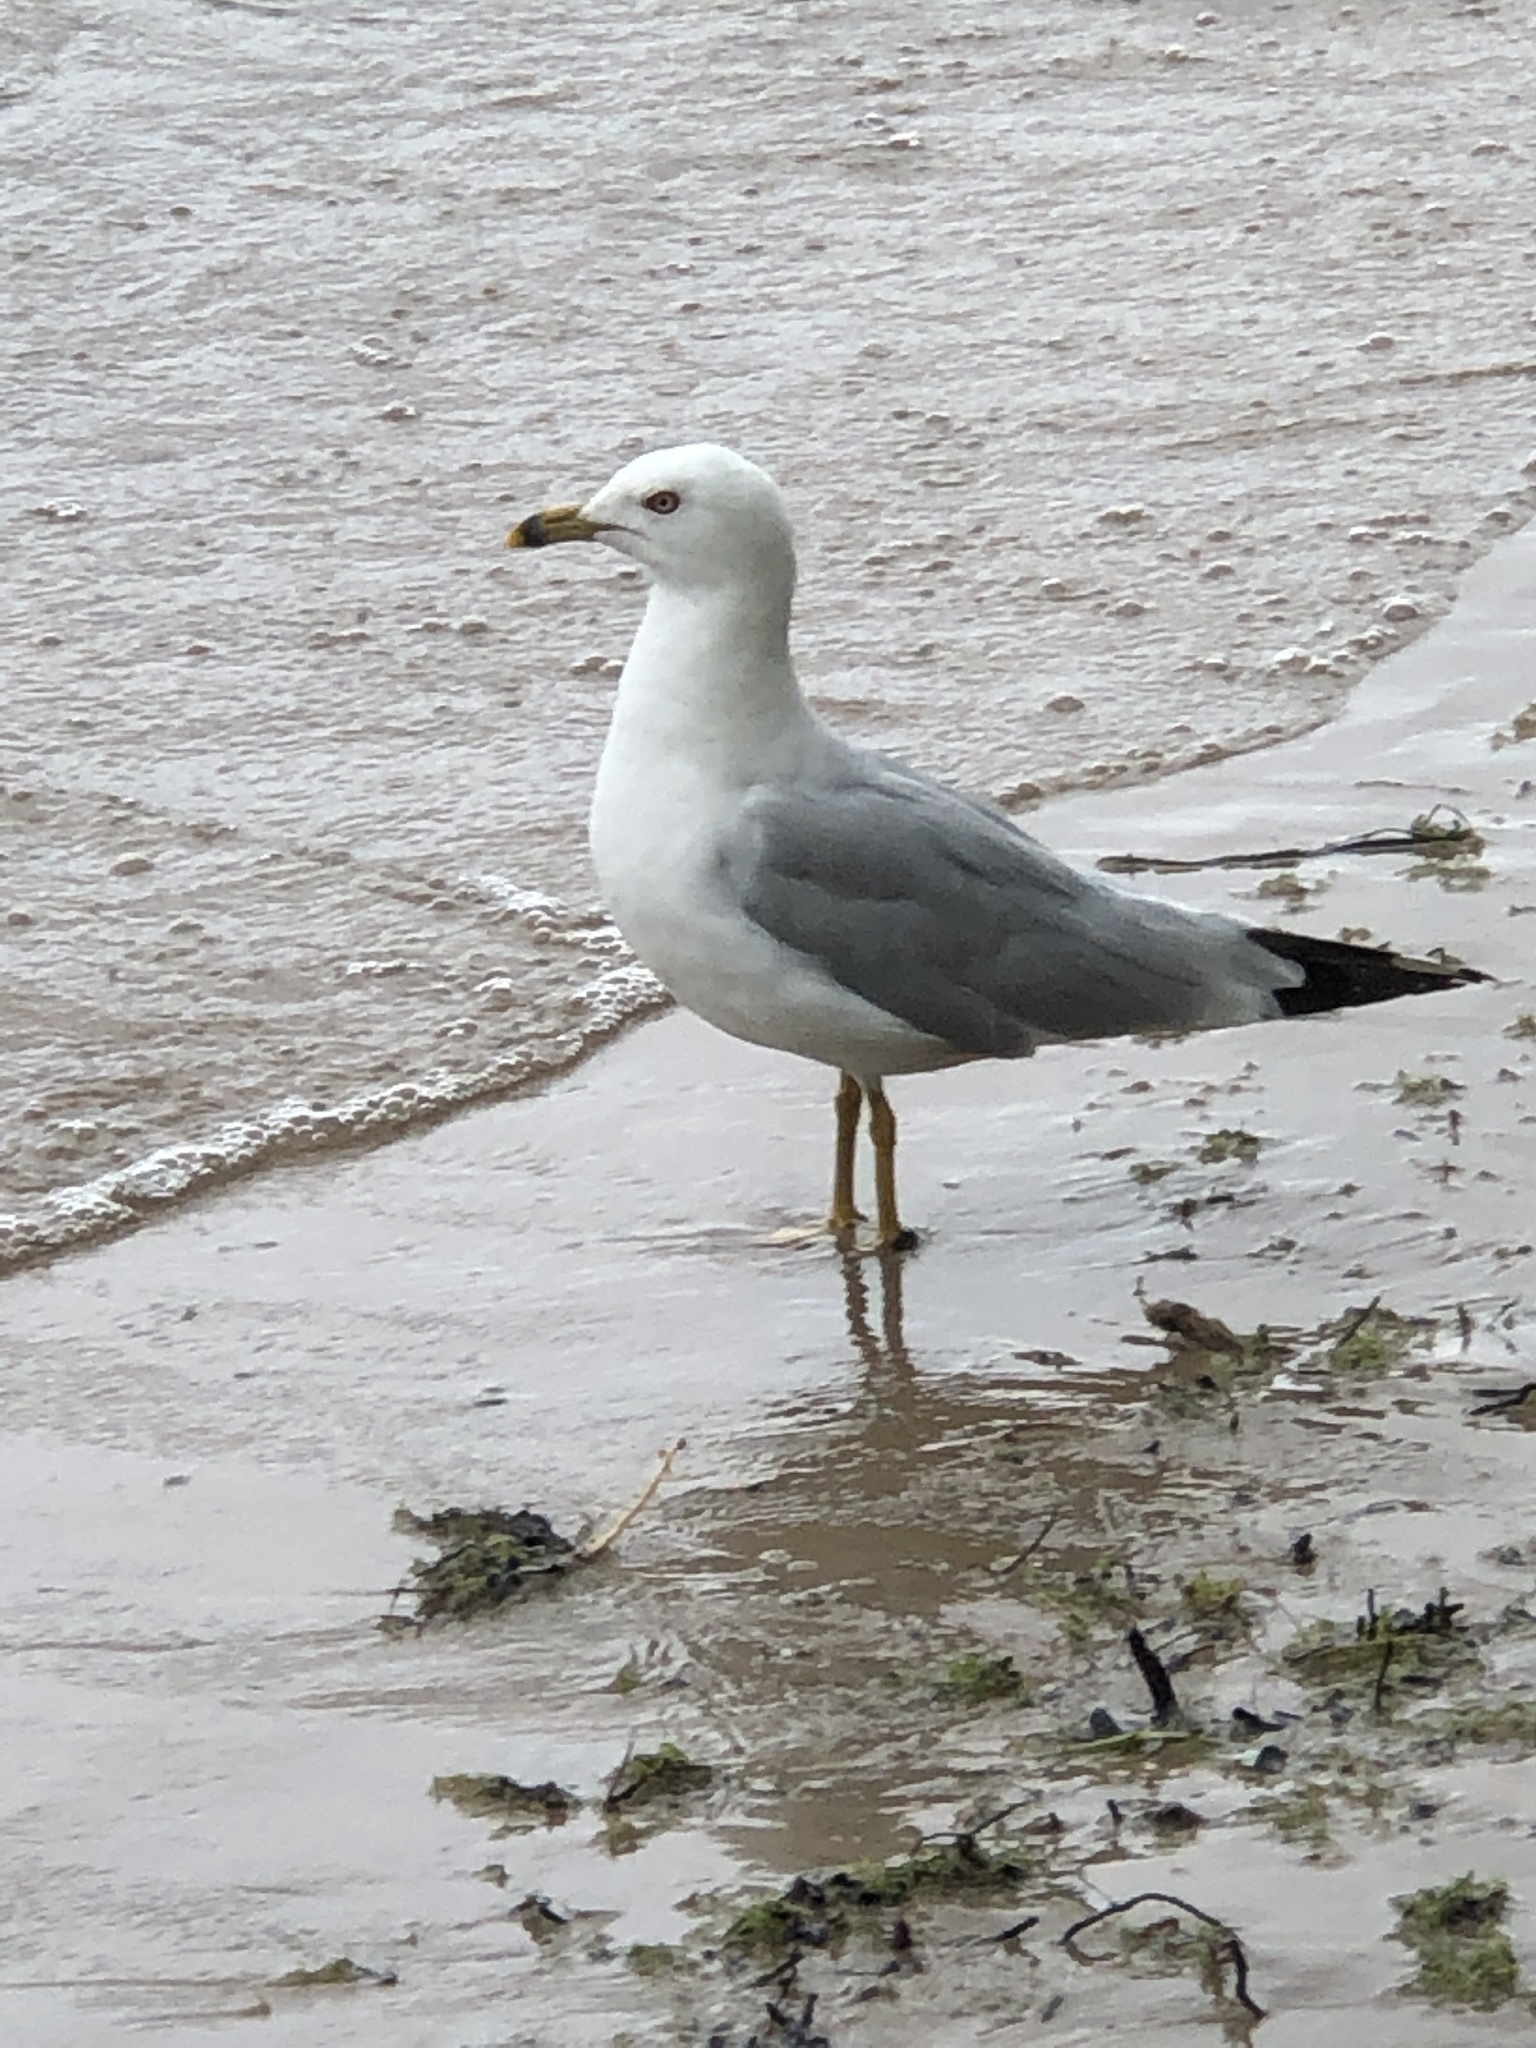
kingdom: Animalia
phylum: Chordata
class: Aves
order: Charadriiformes
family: Laridae
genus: Larus
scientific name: Larus delawarensis
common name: Ring-billed gull
